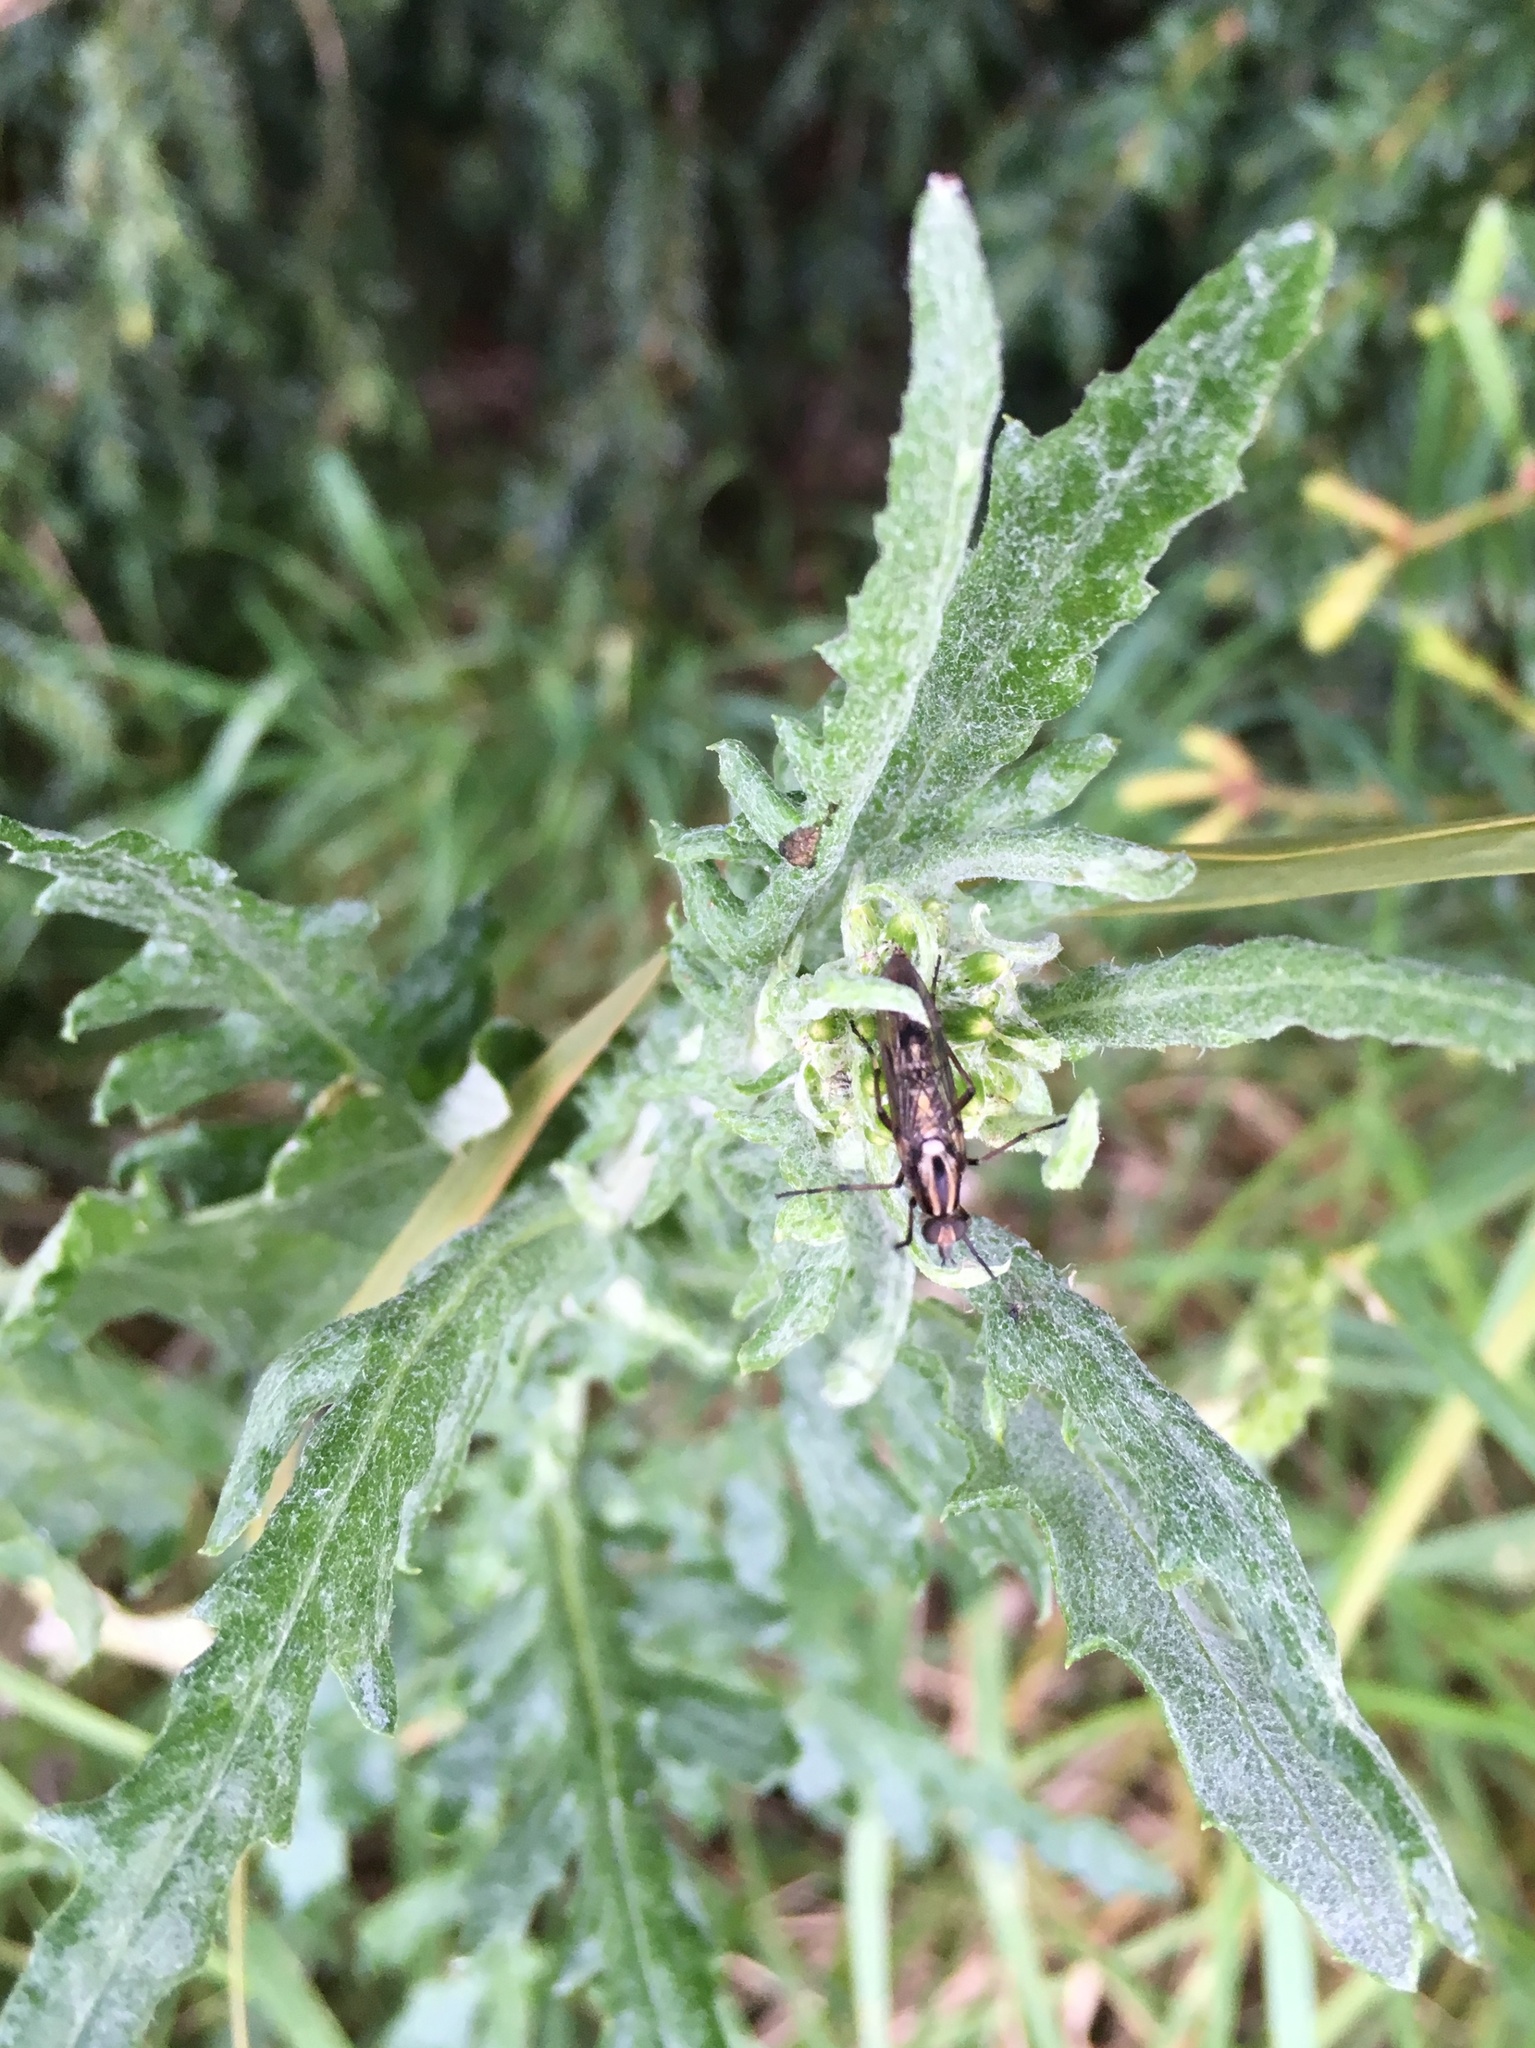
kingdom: Animalia
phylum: Arthropoda
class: Insecta
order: Diptera
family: Therevidae
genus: Anabarhynchus
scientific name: Anabarhynchus micans
